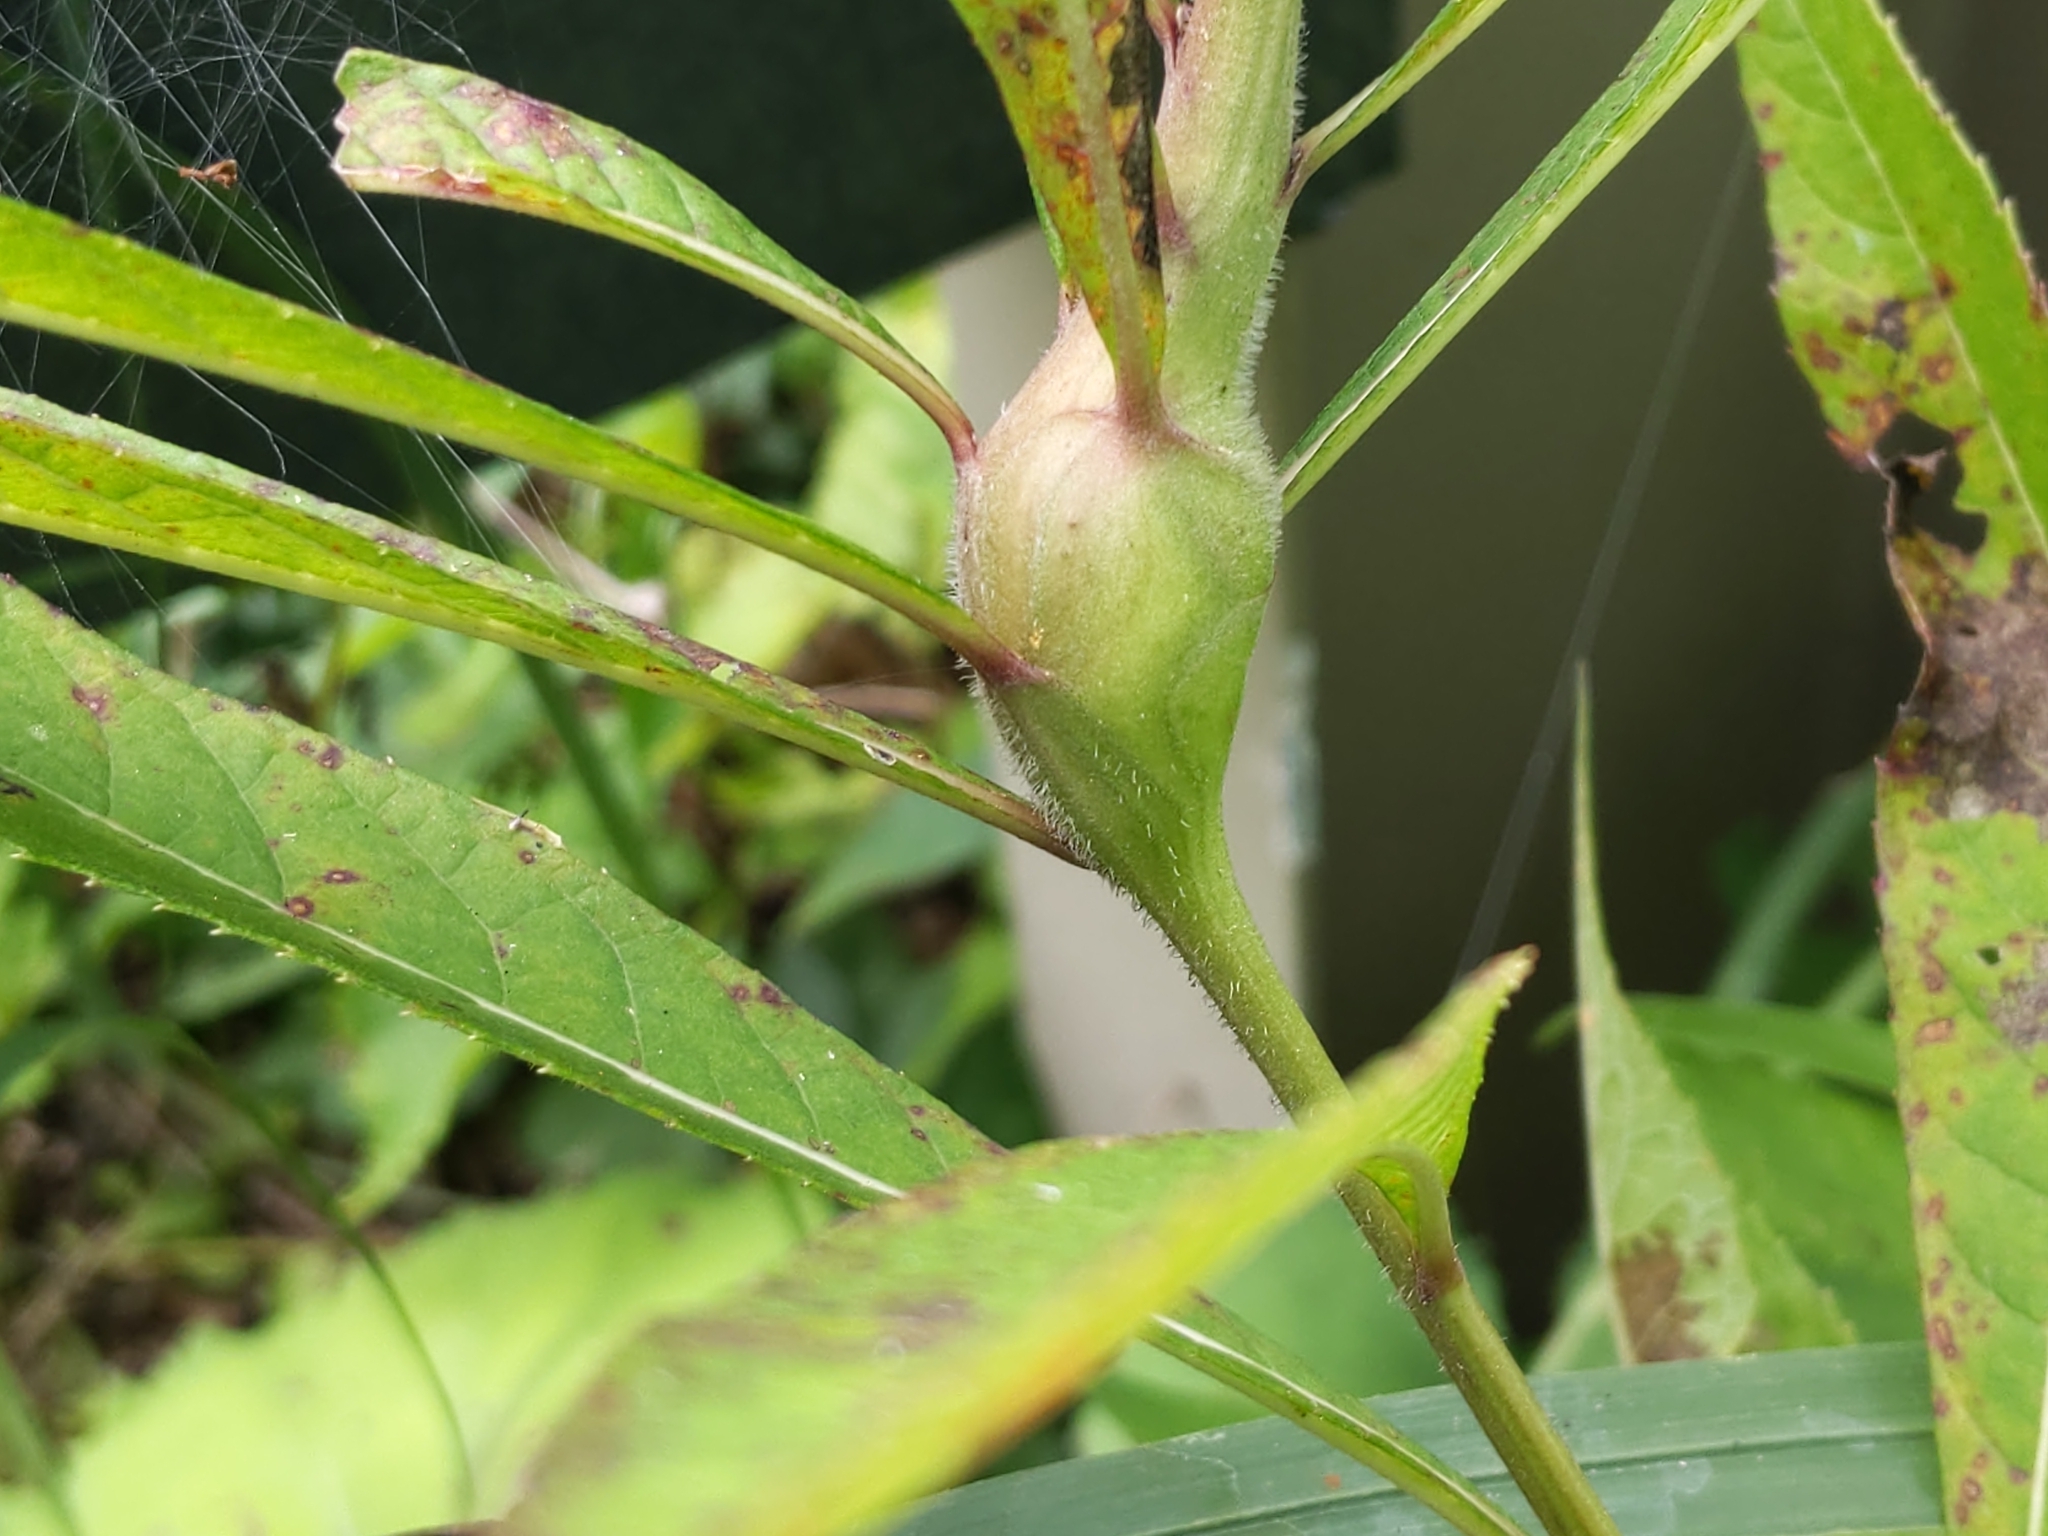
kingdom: Animalia
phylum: Arthropoda
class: Insecta
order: Diptera
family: Cecidomyiidae
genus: Neolasioptera
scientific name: Neolasioptera vernoniae
